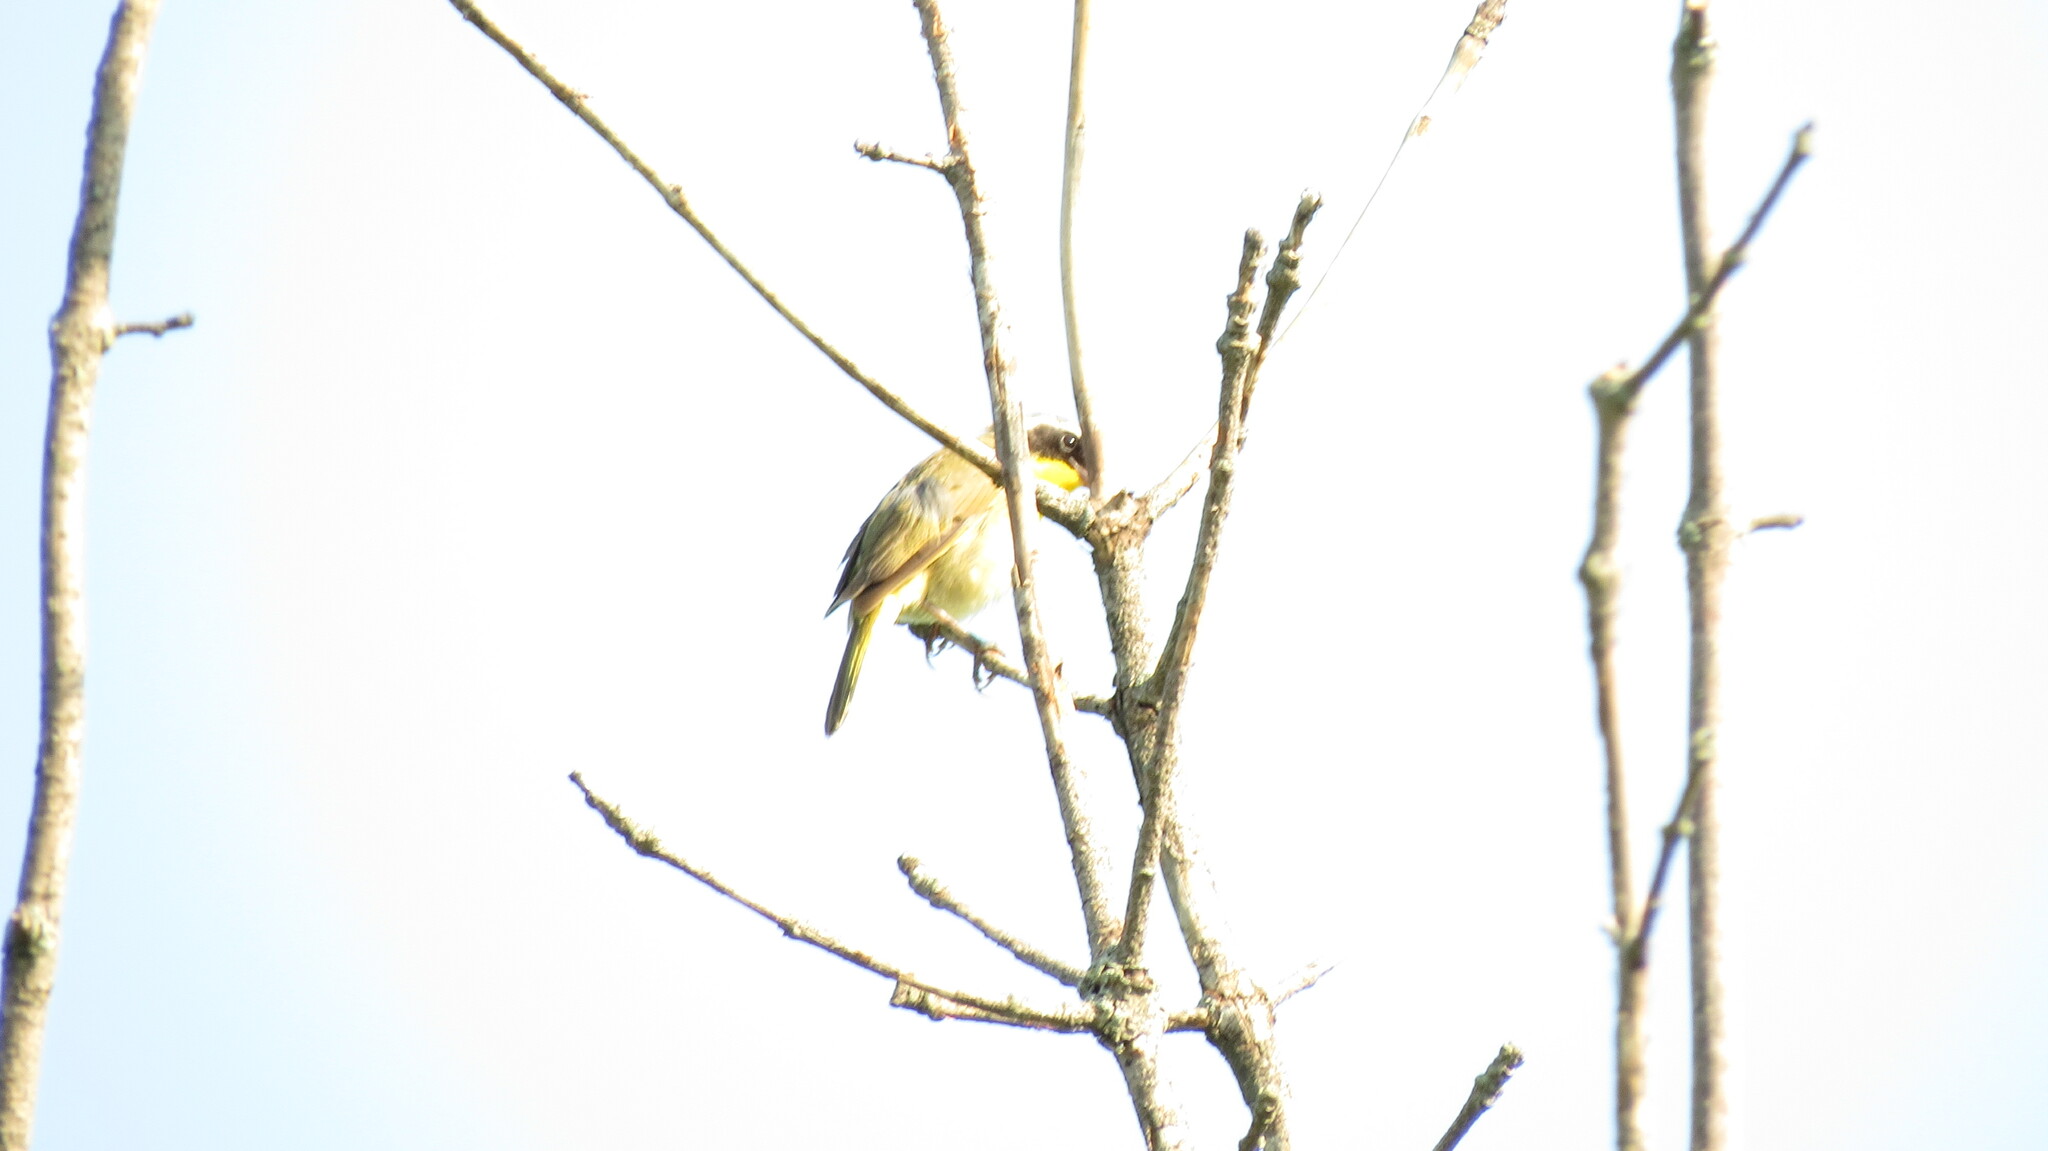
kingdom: Animalia
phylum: Chordata
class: Aves
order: Passeriformes
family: Parulidae
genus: Geothlypis
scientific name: Geothlypis trichas
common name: Common yellowthroat
